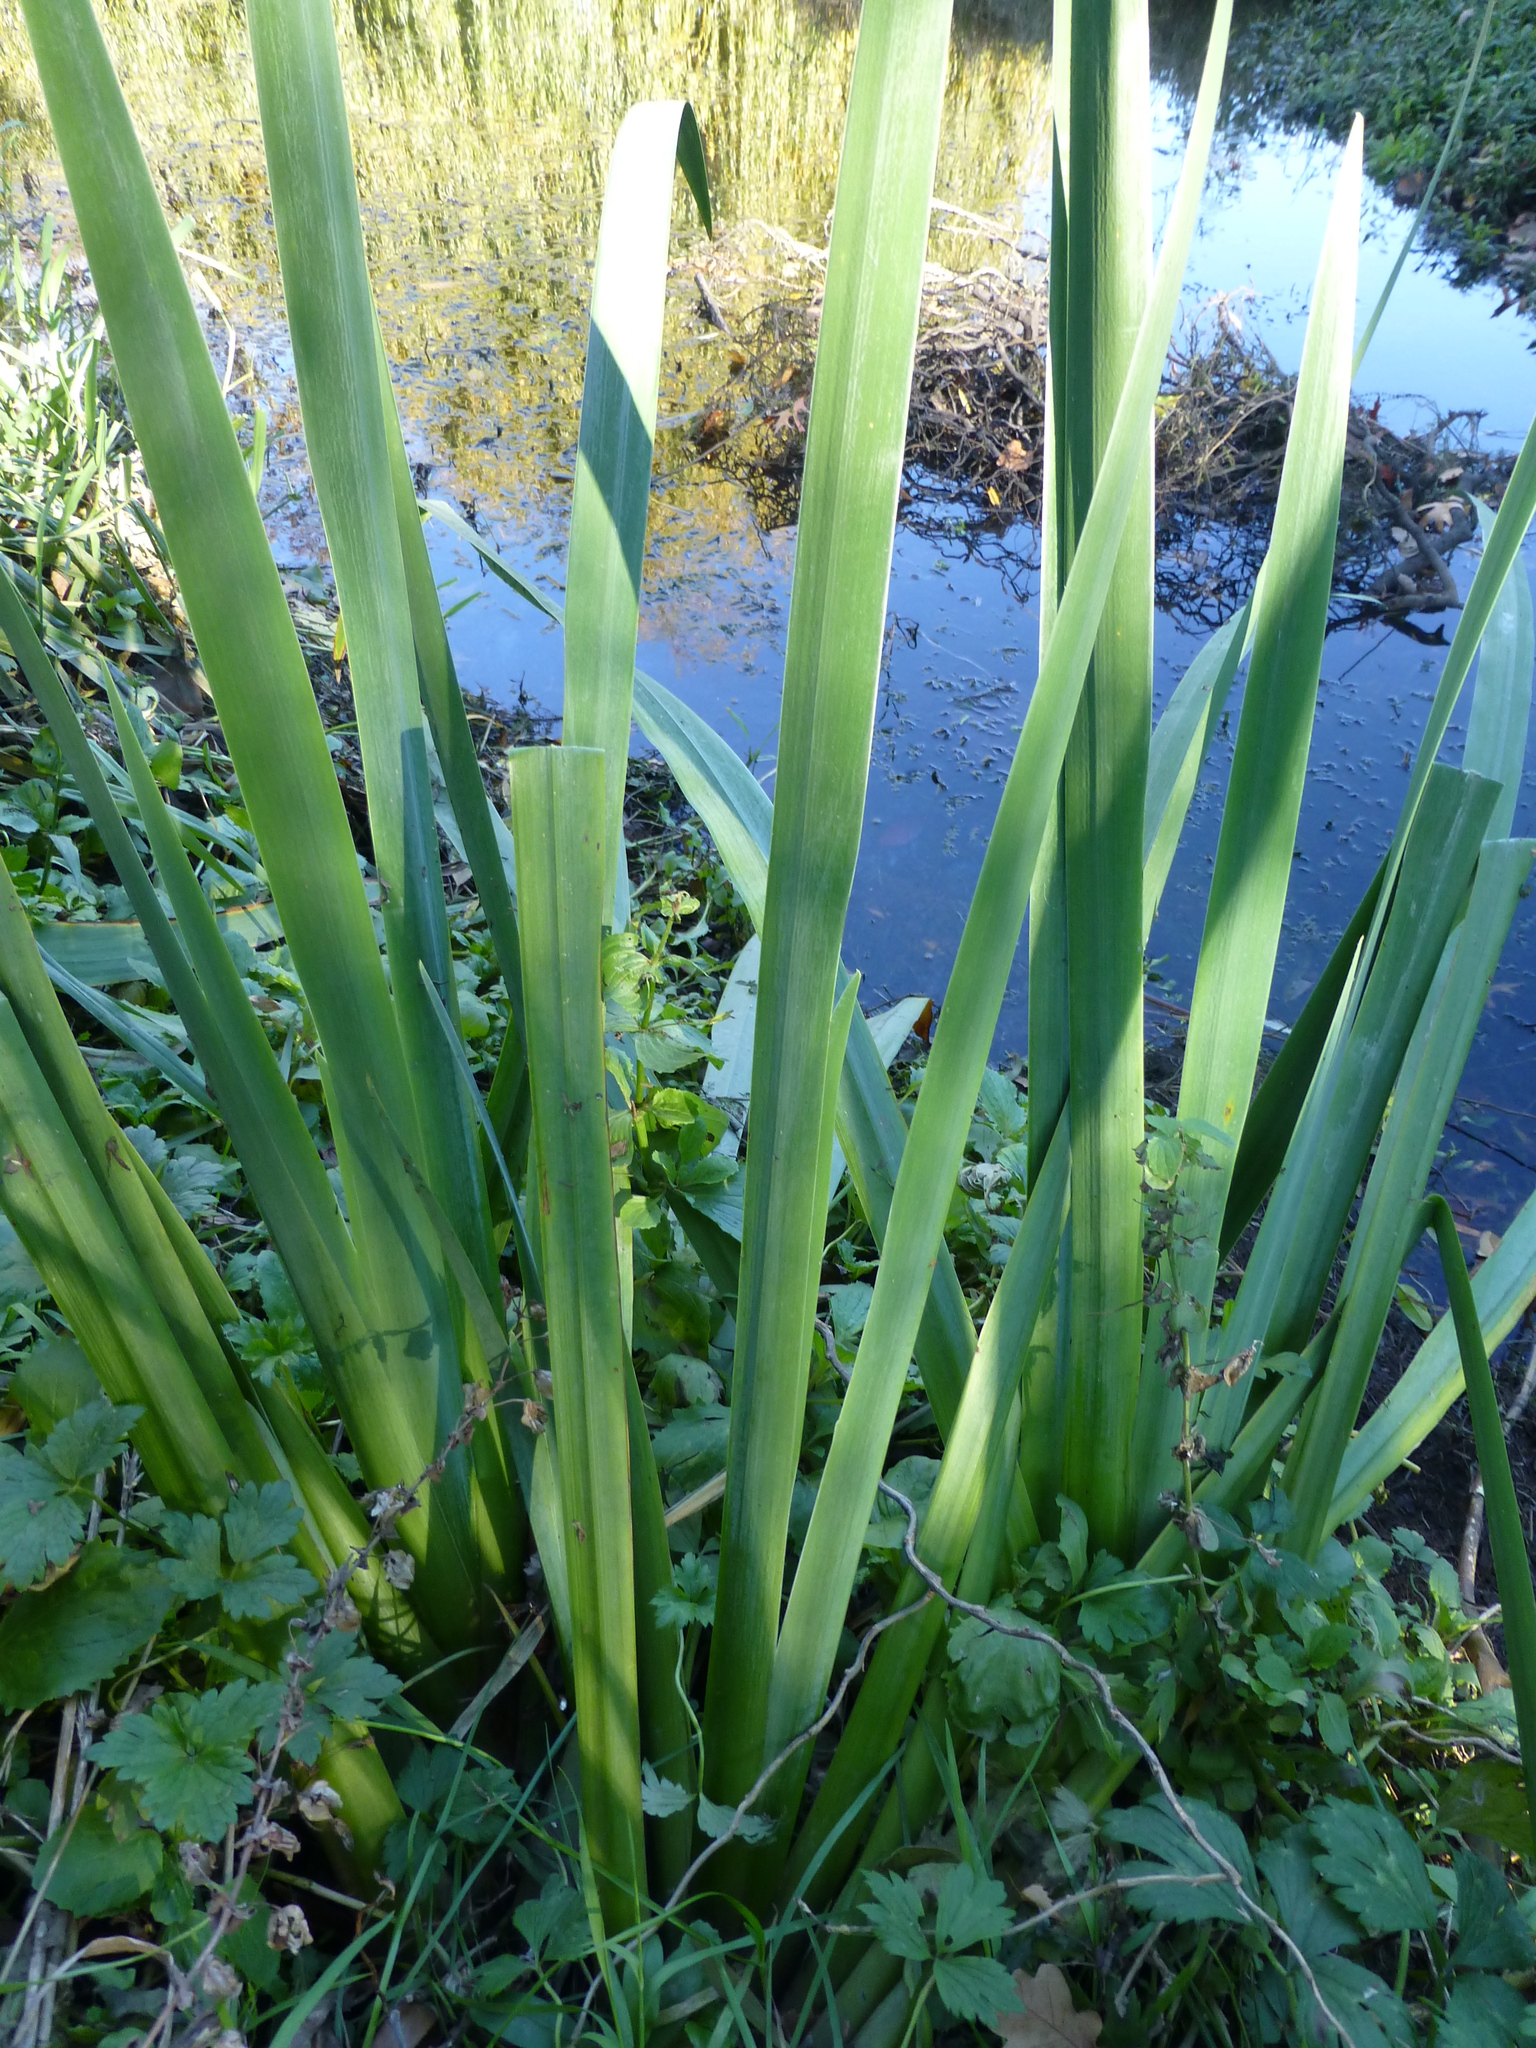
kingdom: Plantae
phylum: Tracheophyta
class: Liliopsida
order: Asparagales
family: Iridaceae
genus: Iris
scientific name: Iris pseudacorus
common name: Yellow flag
